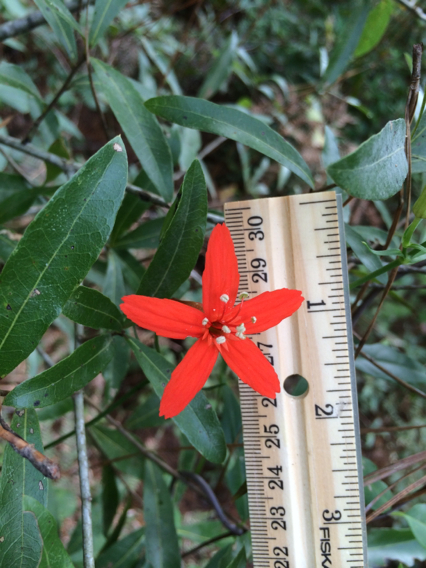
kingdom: Plantae
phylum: Tracheophyta
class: Magnoliopsida
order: Caryophyllales
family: Caryophyllaceae
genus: Silene
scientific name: Silene subciliata
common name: Prairie fire-pink
